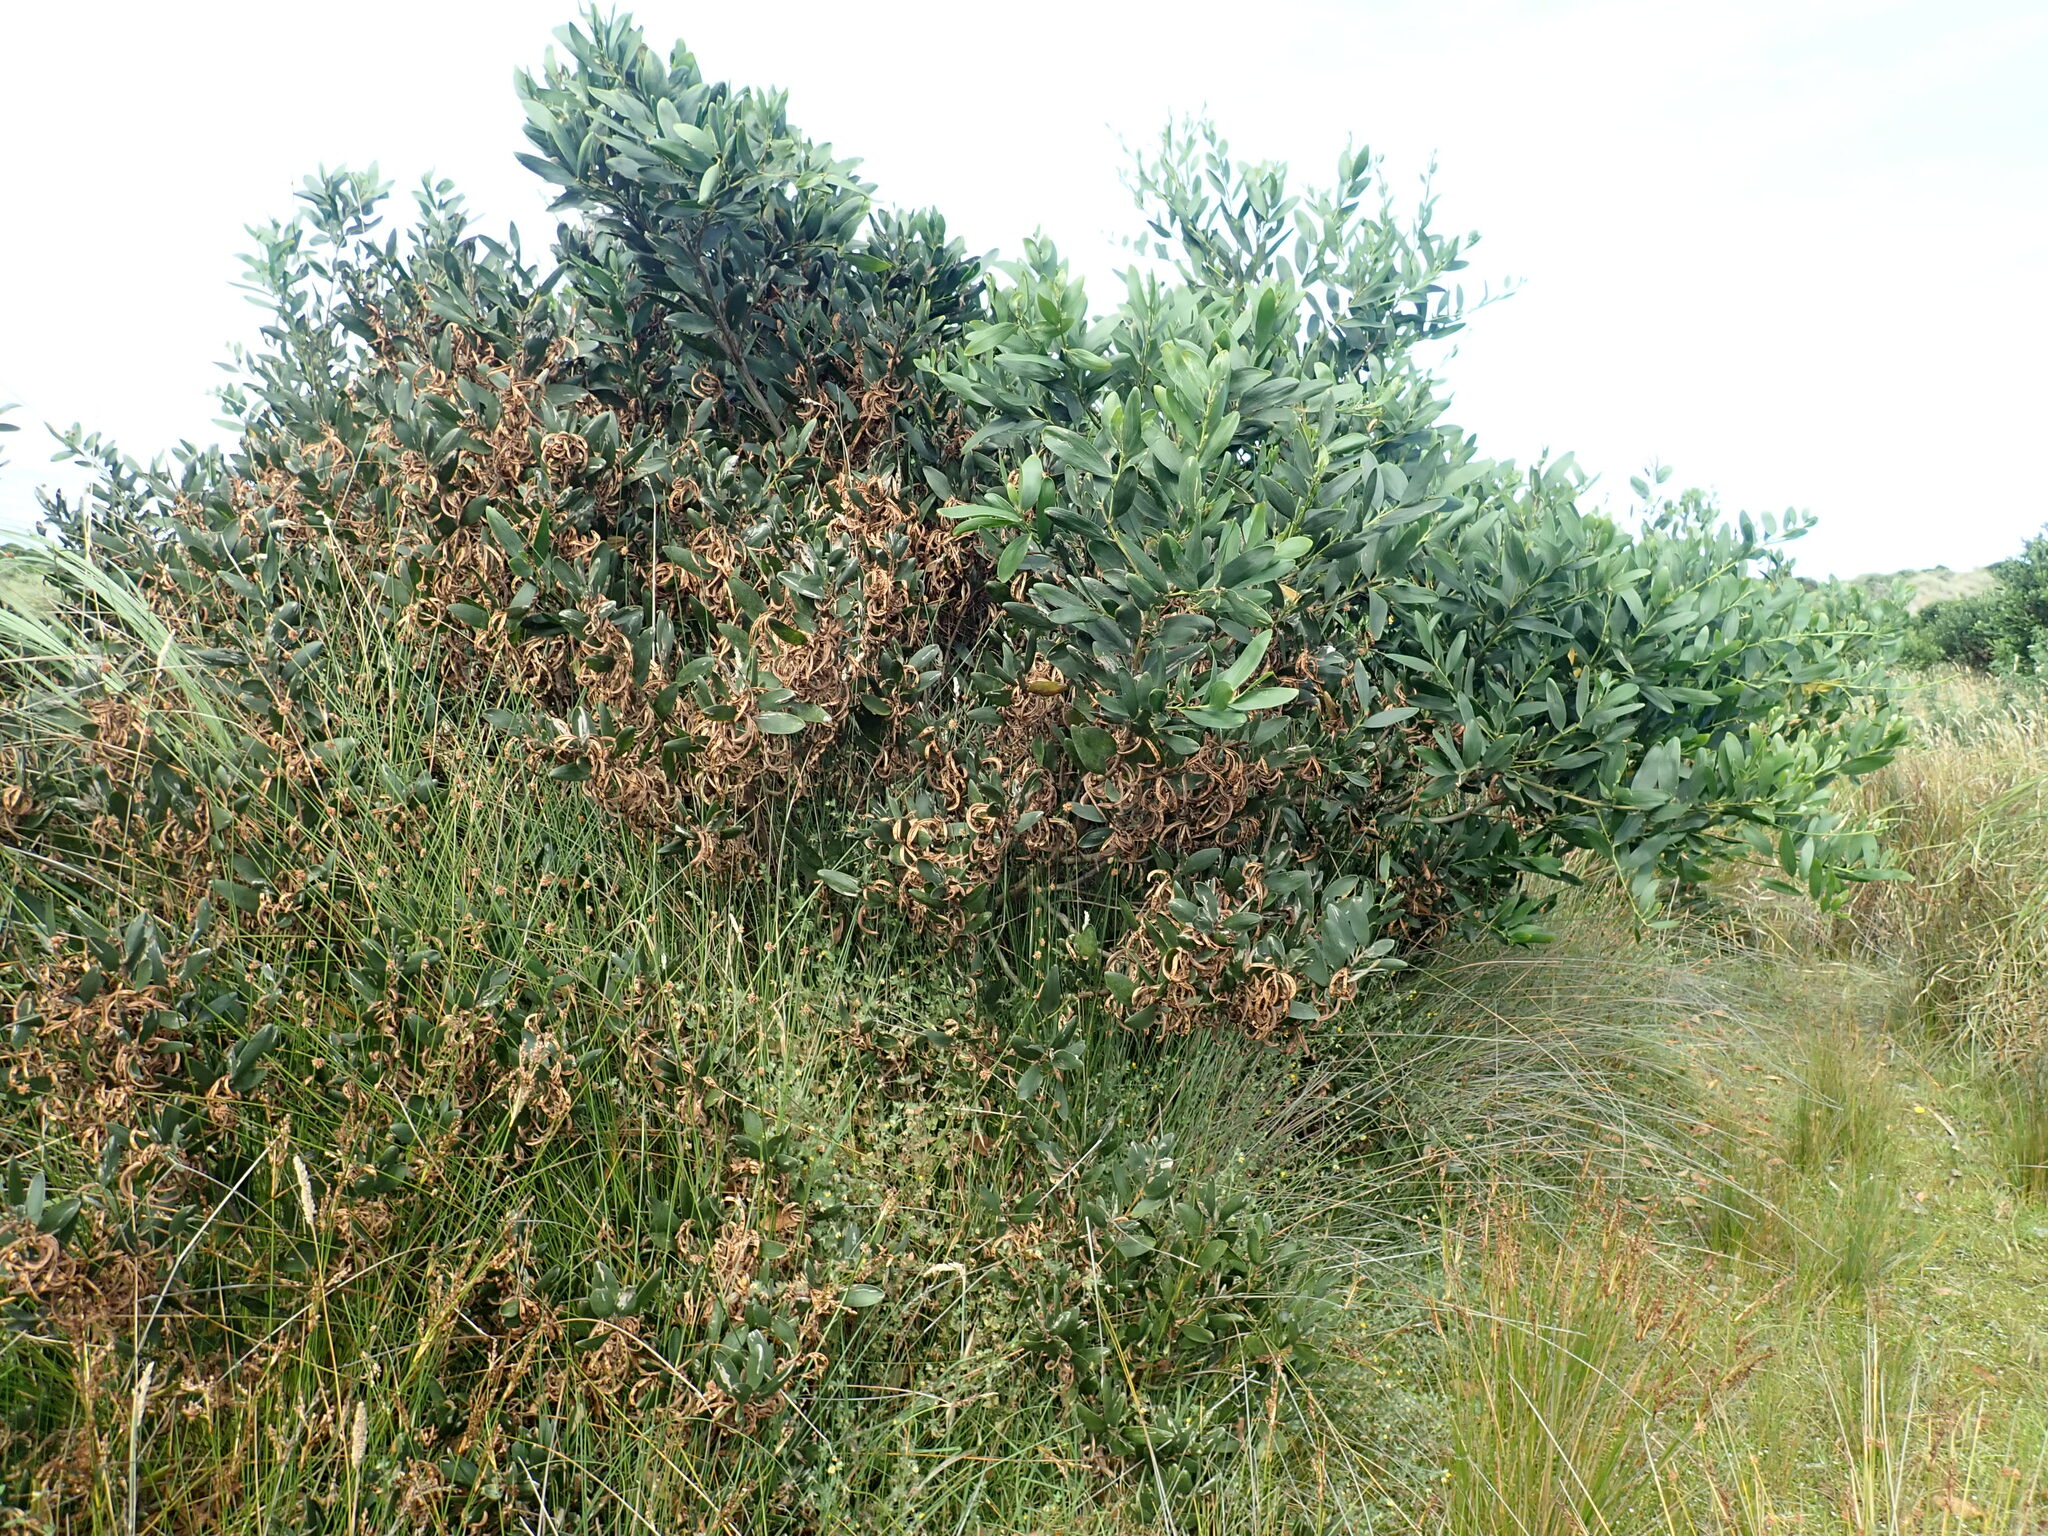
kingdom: Plantae
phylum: Tracheophyta
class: Magnoliopsida
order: Fabales
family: Fabaceae
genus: Acacia
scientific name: Acacia longifolia
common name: Sydney golden wattle
